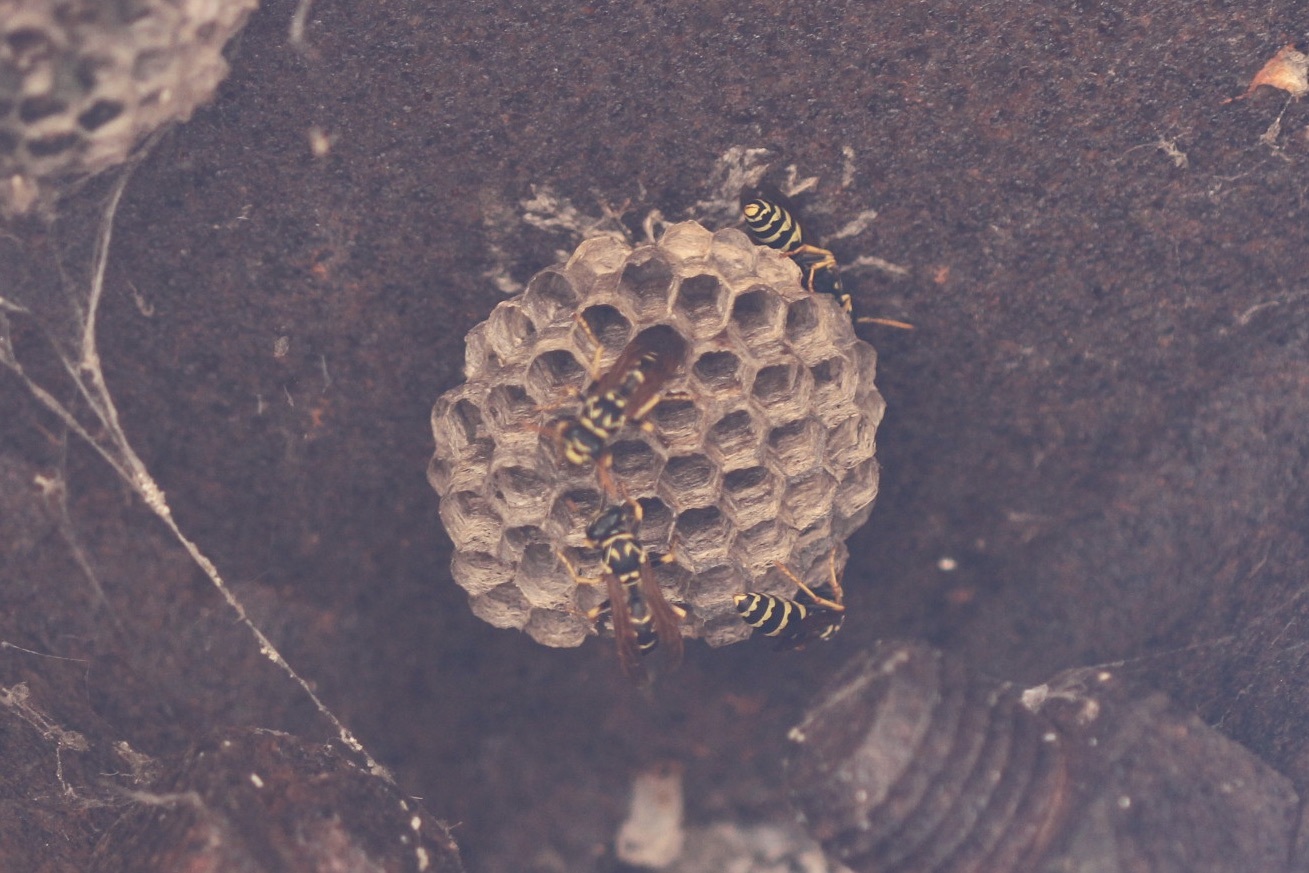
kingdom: Animalia
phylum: Arthropoda
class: Insecta
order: Hymenoptera
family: Eumenidae
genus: Polistes
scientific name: Polistes dominula
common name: Paper wasp
